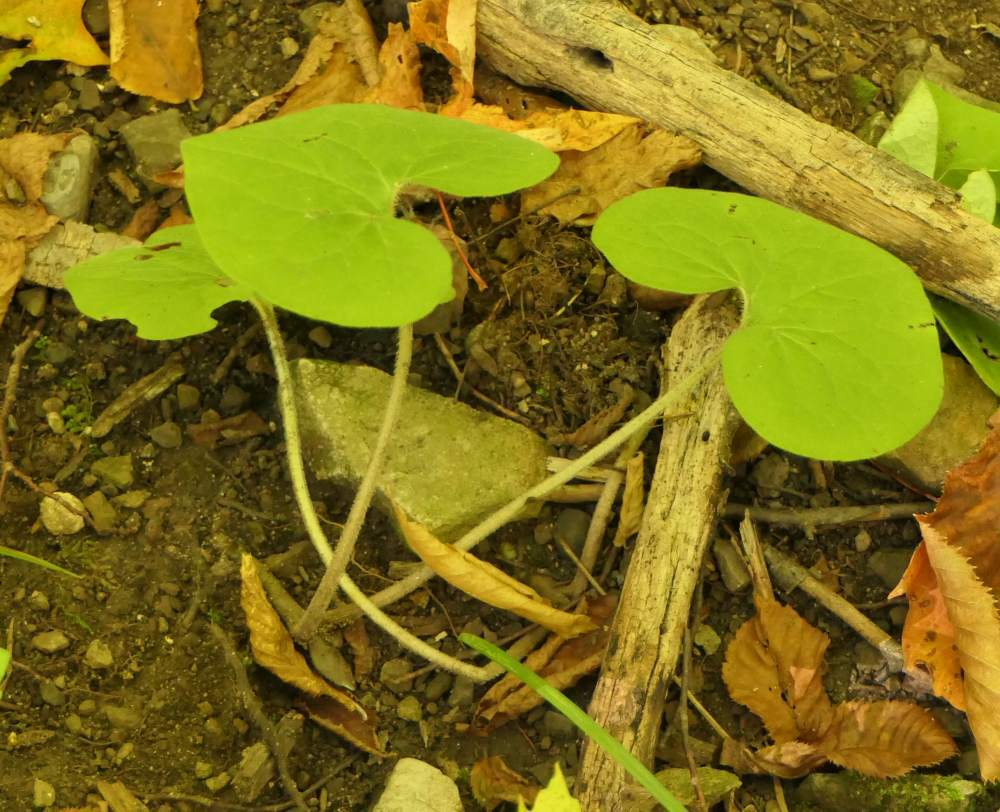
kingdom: Plantae
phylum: Tracheophyta
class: Magnoliopsida
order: Piperales
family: Aristolochiaceae
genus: Asarum
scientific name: Asarum canadense
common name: Wild ginger
